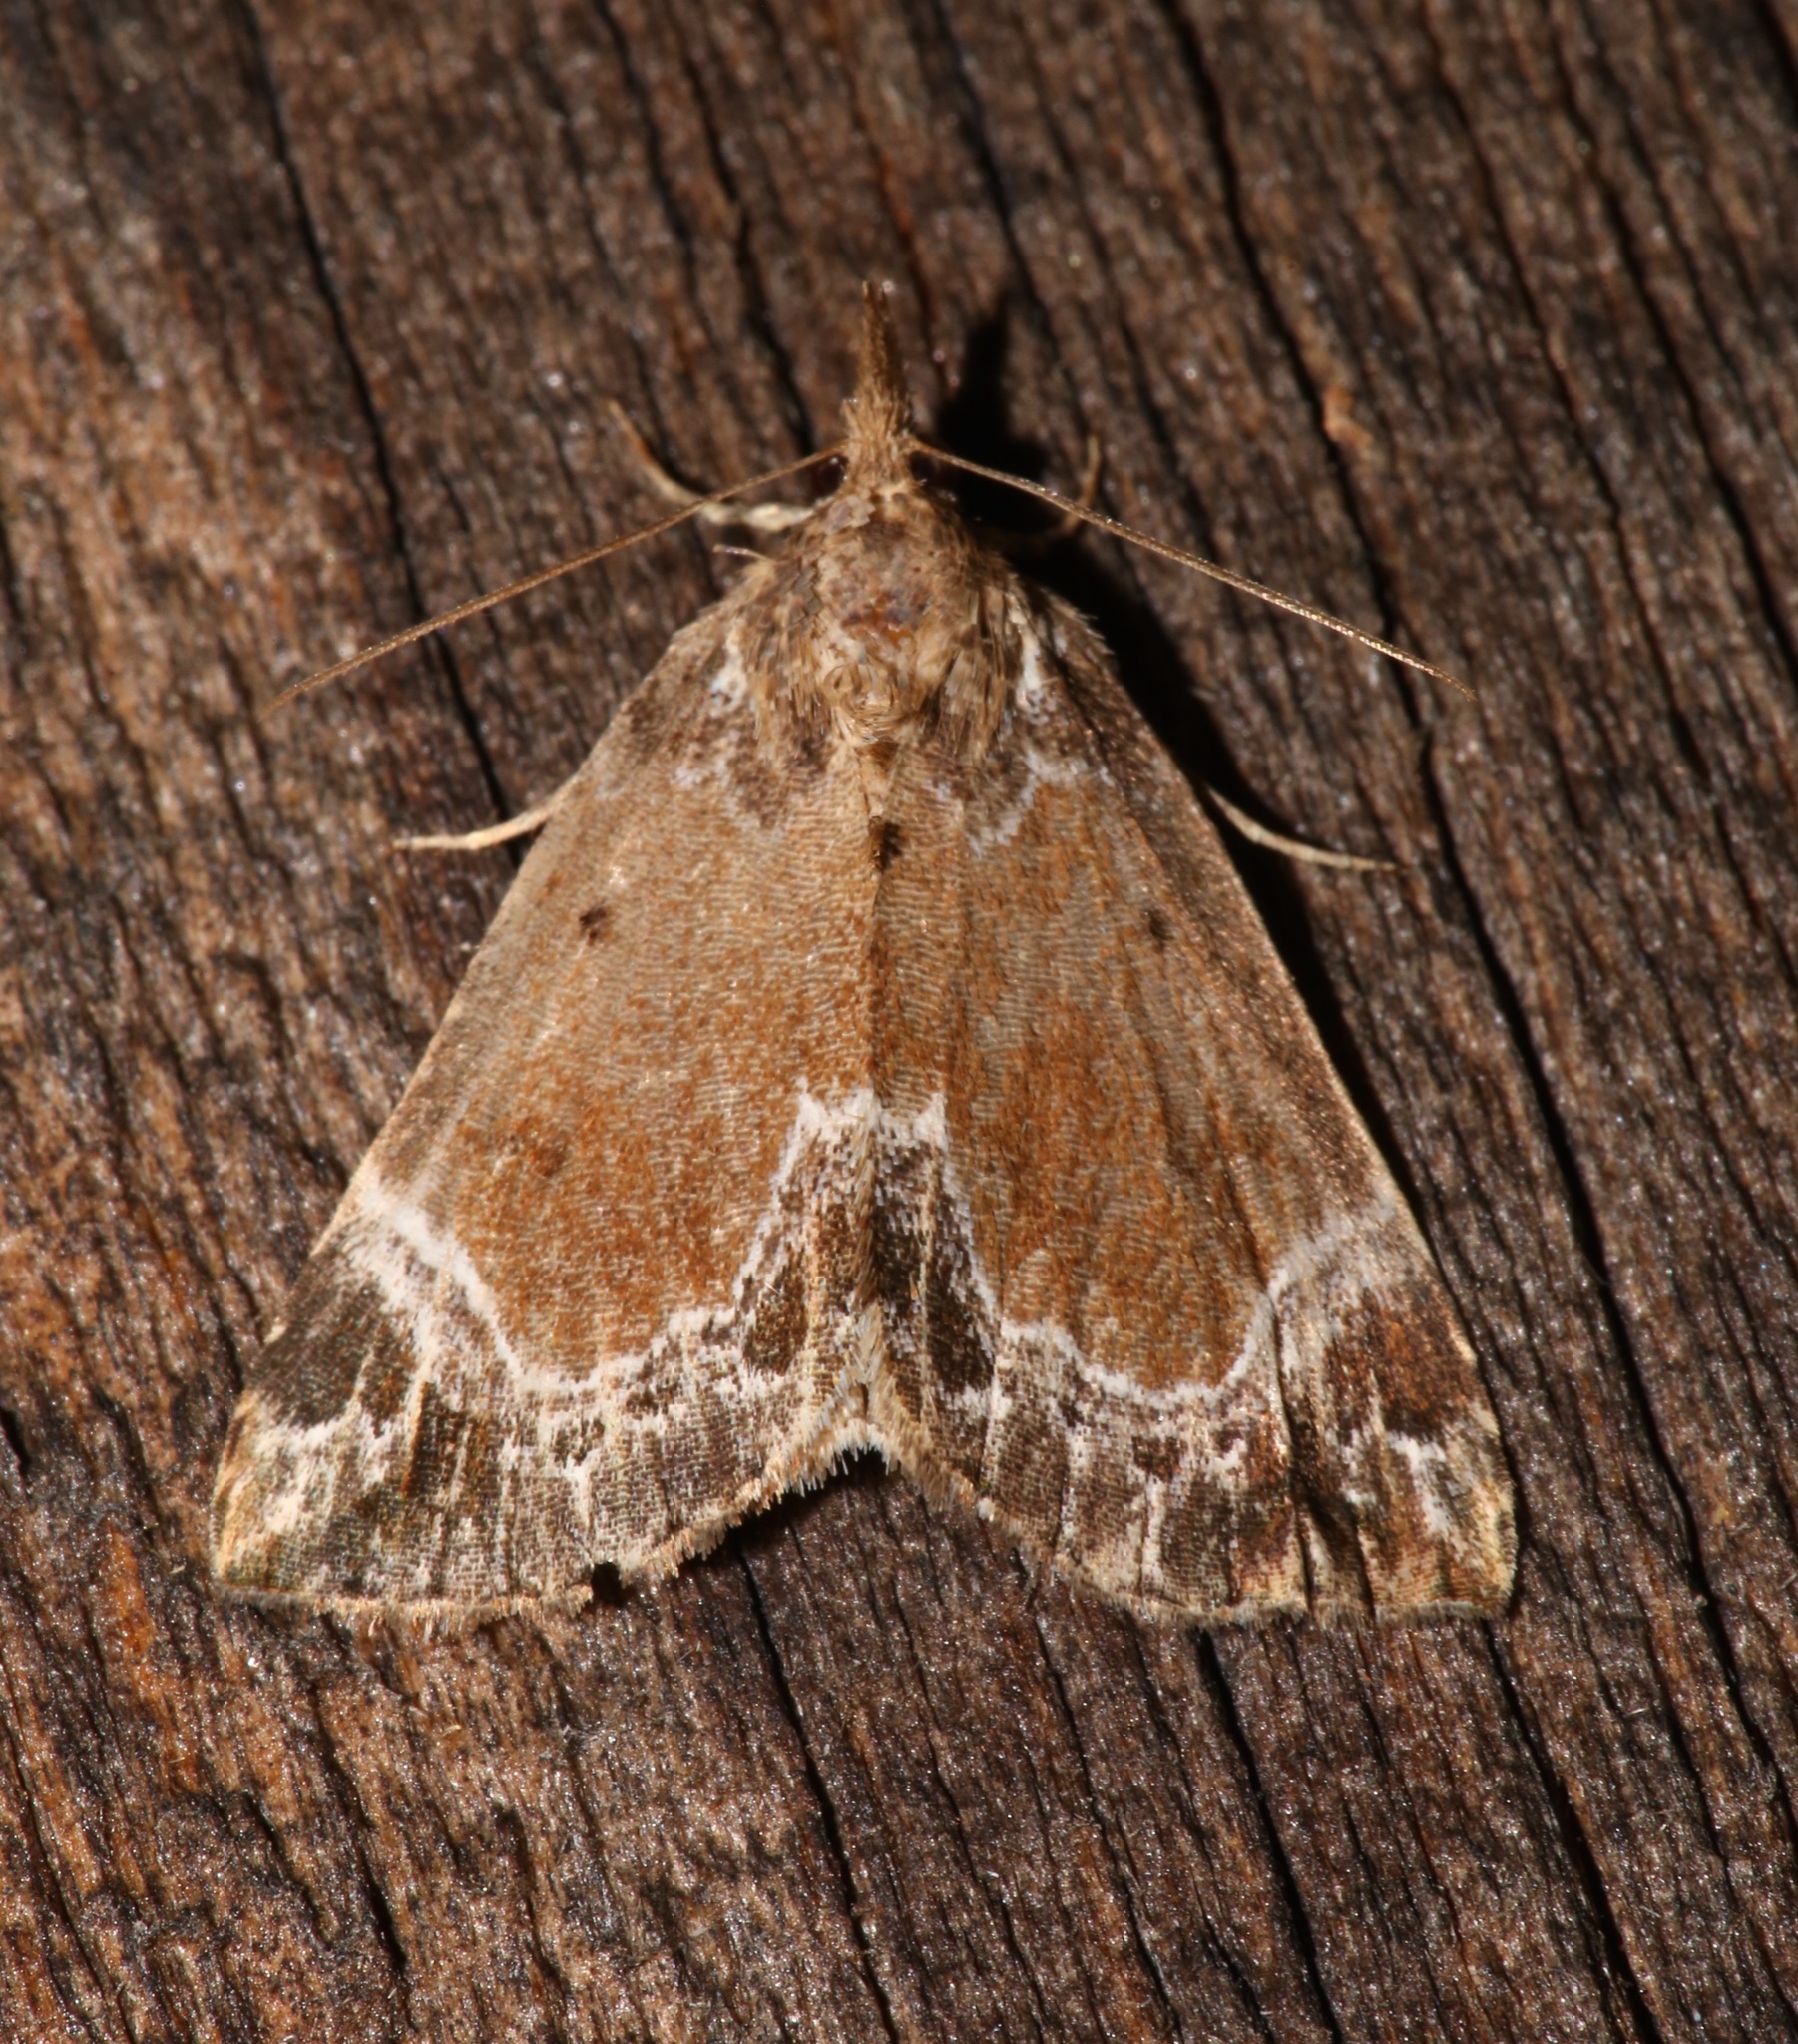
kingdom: Animalia
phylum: Arthropoda
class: Insecta
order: Lepidoptera
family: Erebidae
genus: Hypena
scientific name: Hypena abalienalis
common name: White-lined snout
